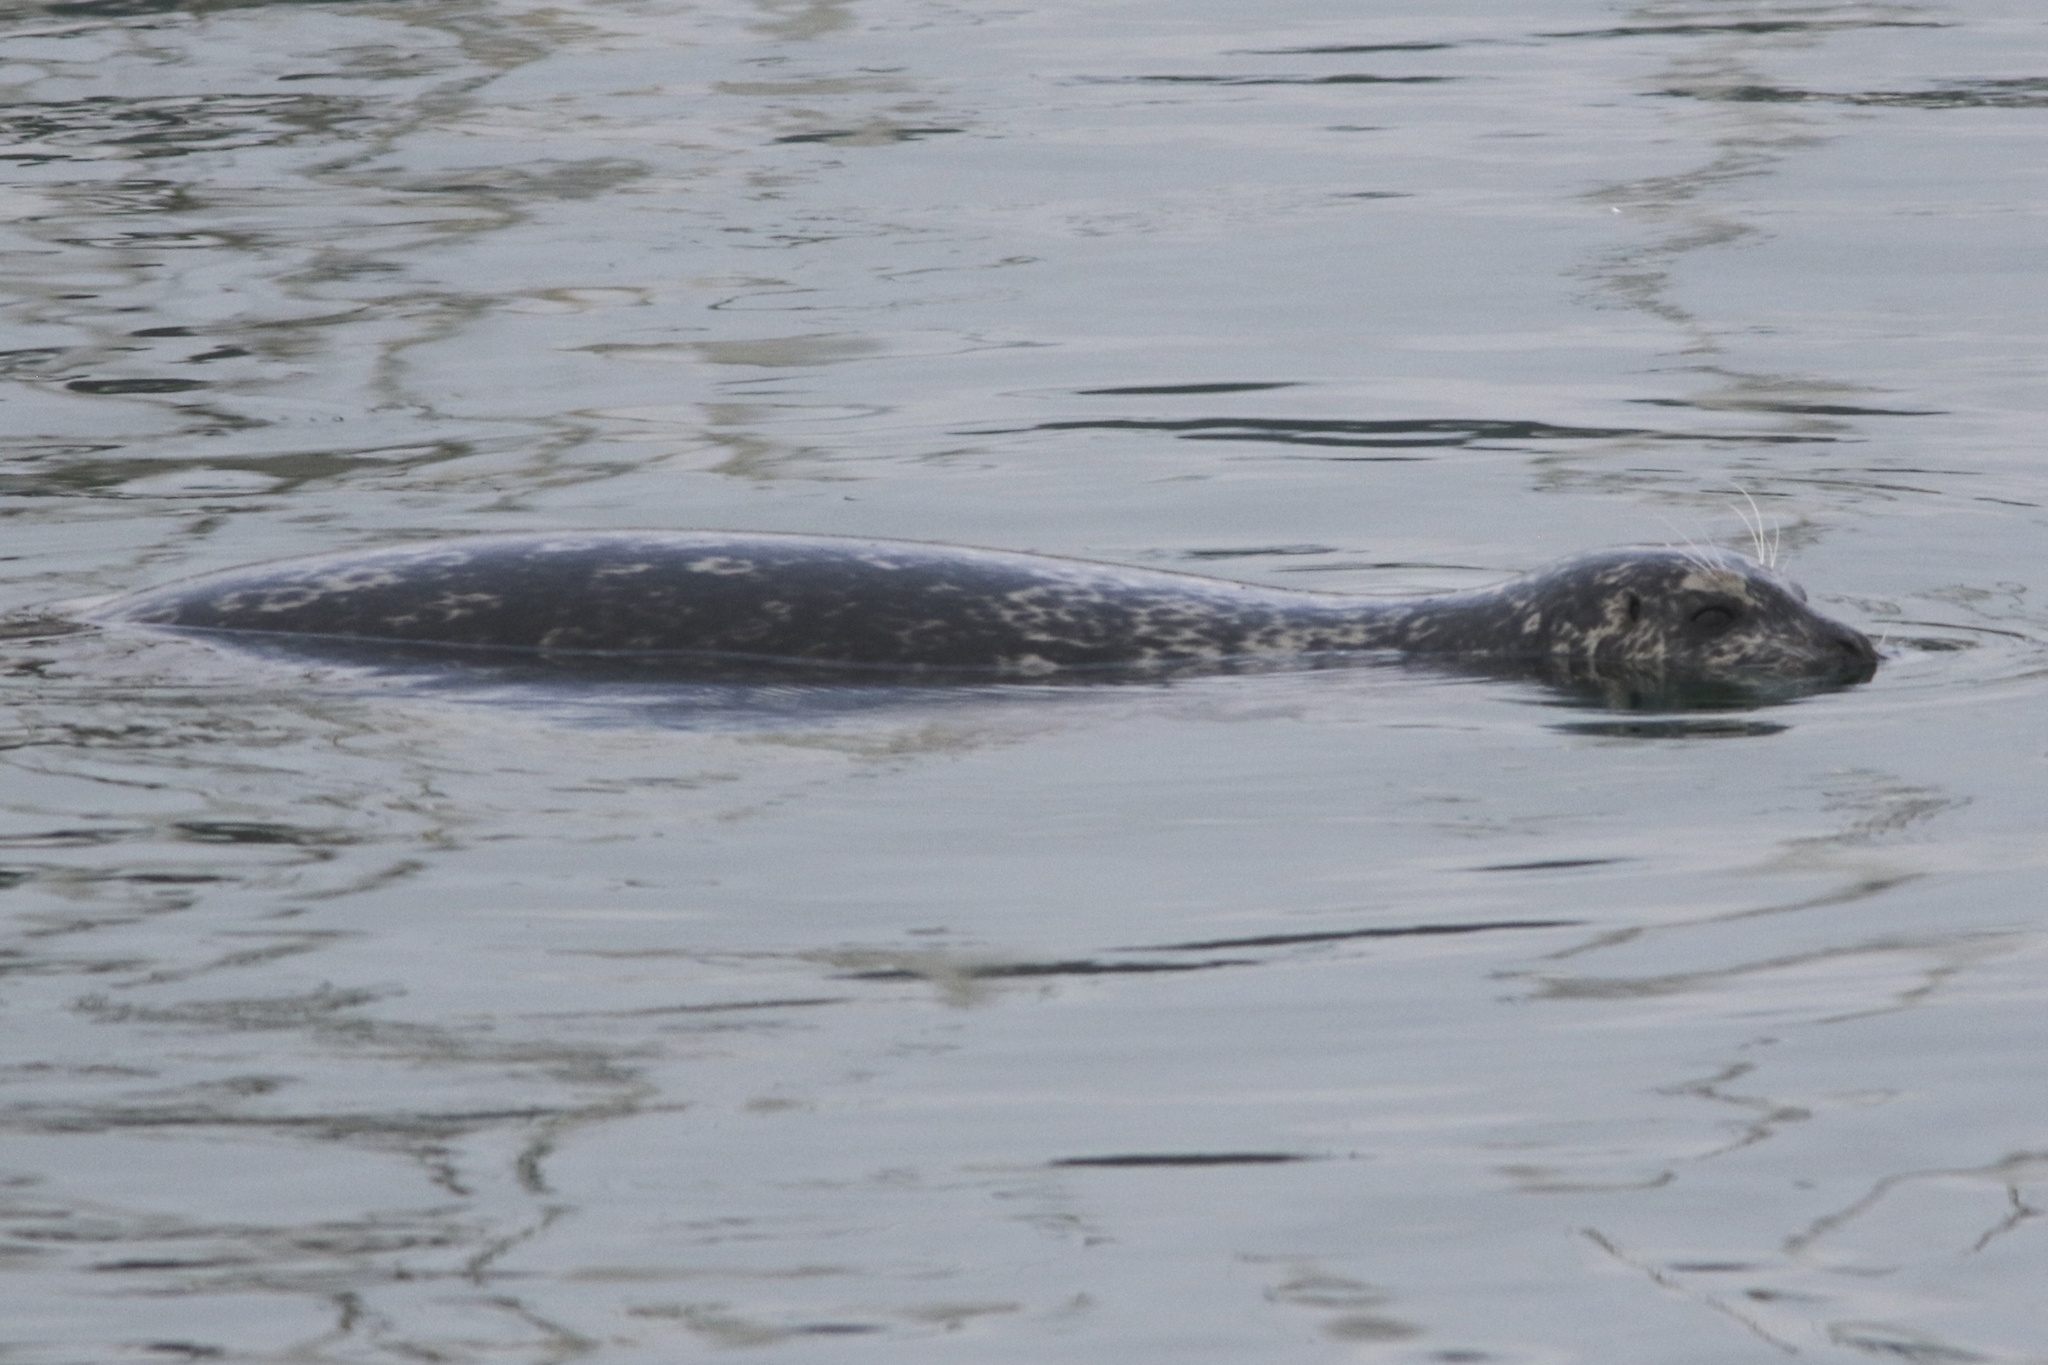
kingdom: Animalia
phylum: Chordata
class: Mammalia
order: Carnivora
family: Phocidae
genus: Phoca
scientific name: Phoca vitulina
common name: Harbor seal
